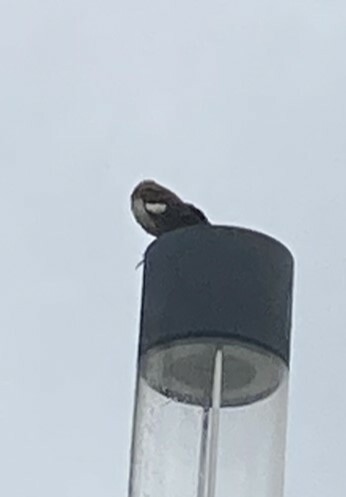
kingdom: Animalia
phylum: Chordata
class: Aves
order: Passeriformes
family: Mimidae
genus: Mimus
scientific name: Mimus polyglottos
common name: Northern mockingbird
